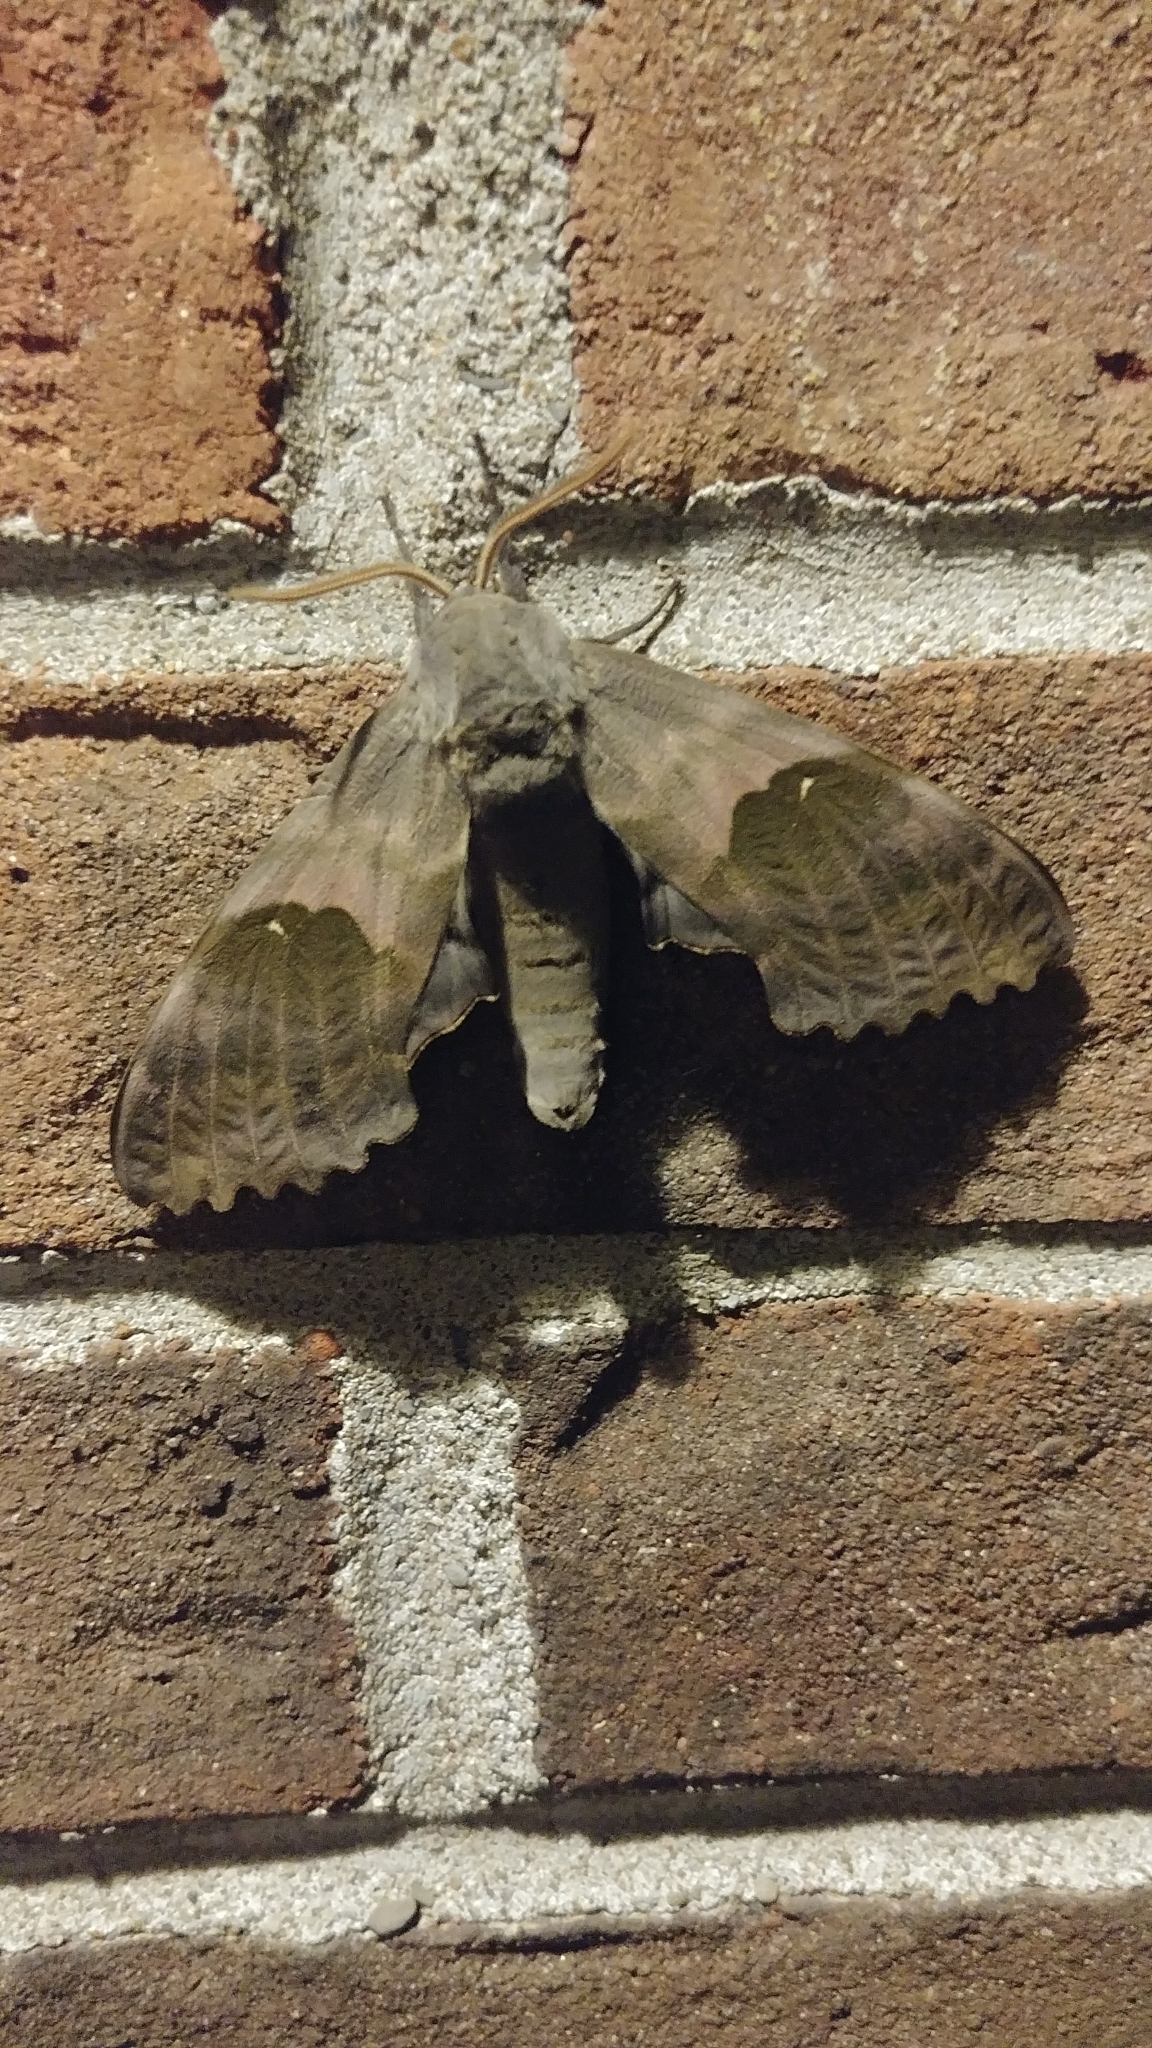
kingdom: Animalia
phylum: Arthropoda
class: Insecta
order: Lepidoptera
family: Sphingidae
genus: Pachysphinx
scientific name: Pachysphinx modesta
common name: Big poplar sphinx
